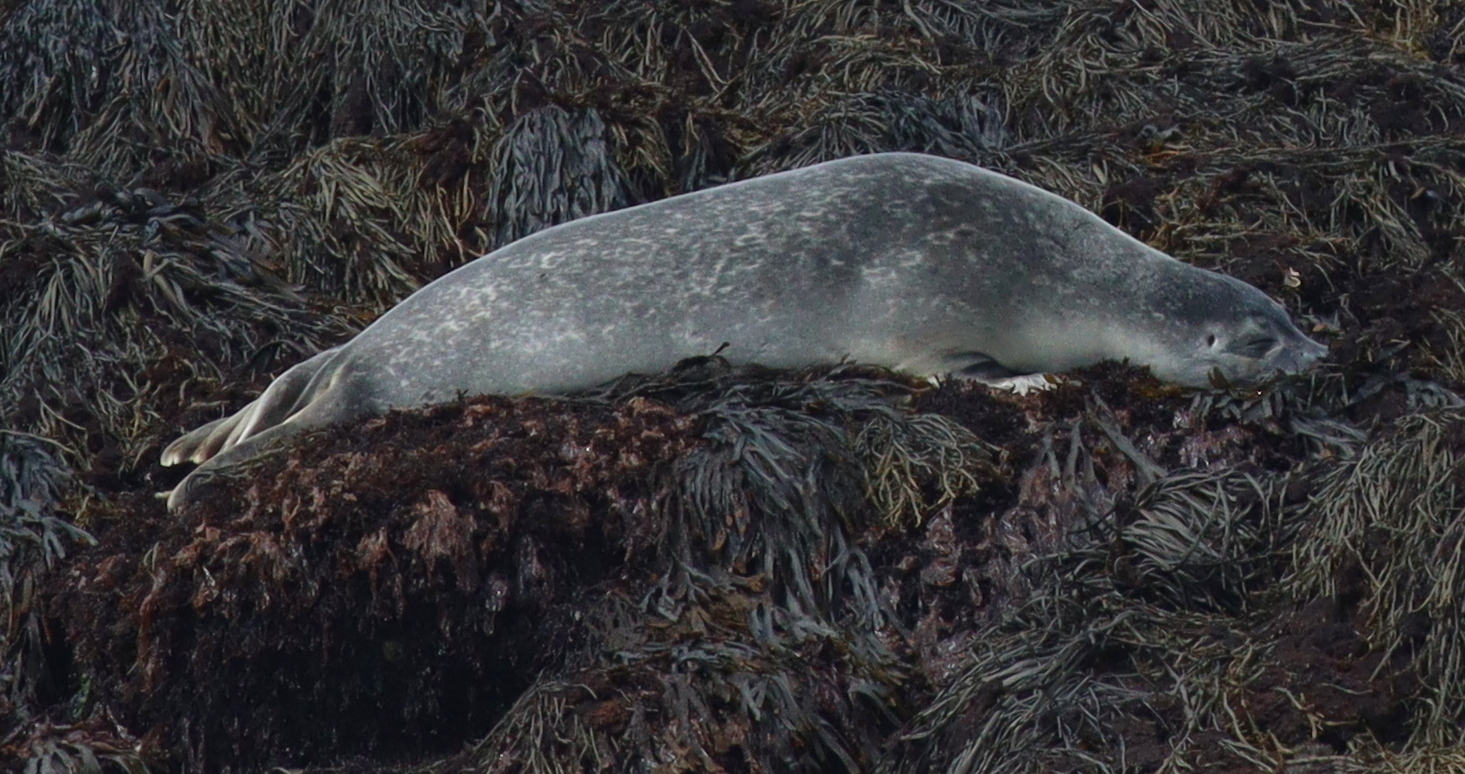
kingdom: Animalia
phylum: Chordata
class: Mammalia
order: Carnivora
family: Phocidae
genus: Phoca
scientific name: Phoca vitulina
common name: Harbor seal
